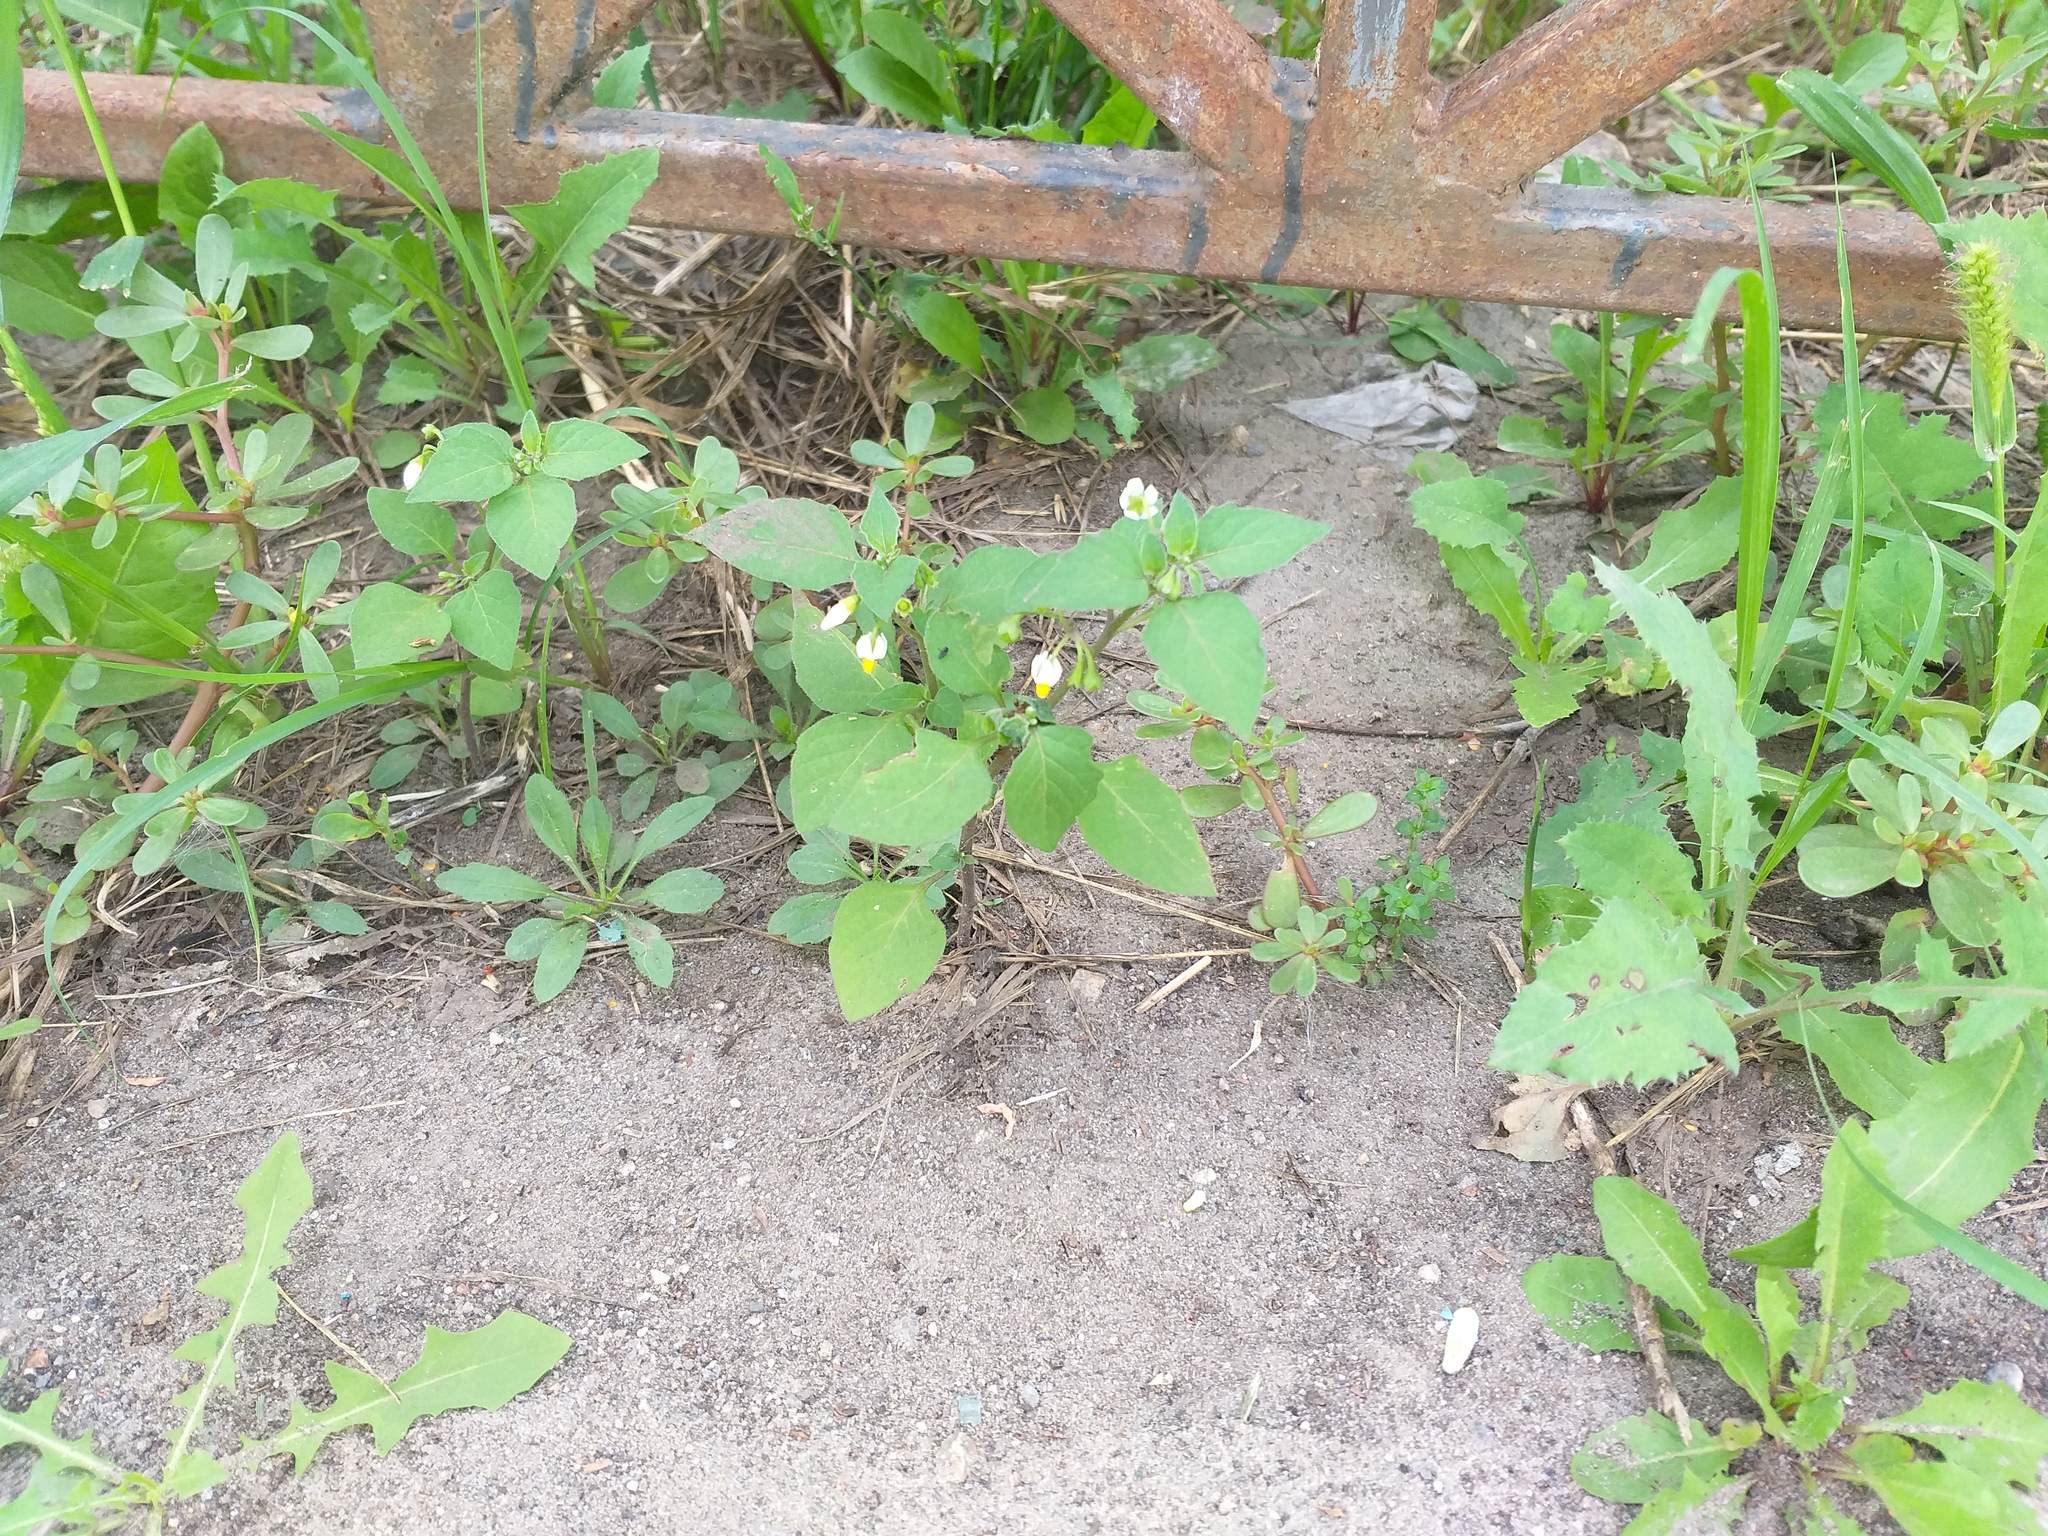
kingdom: Plantae
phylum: Tracheophyta
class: Magnoliopsida
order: Solanales
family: Solanaceae
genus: Solanum
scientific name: Solanum nigrum
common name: Black nightshade
